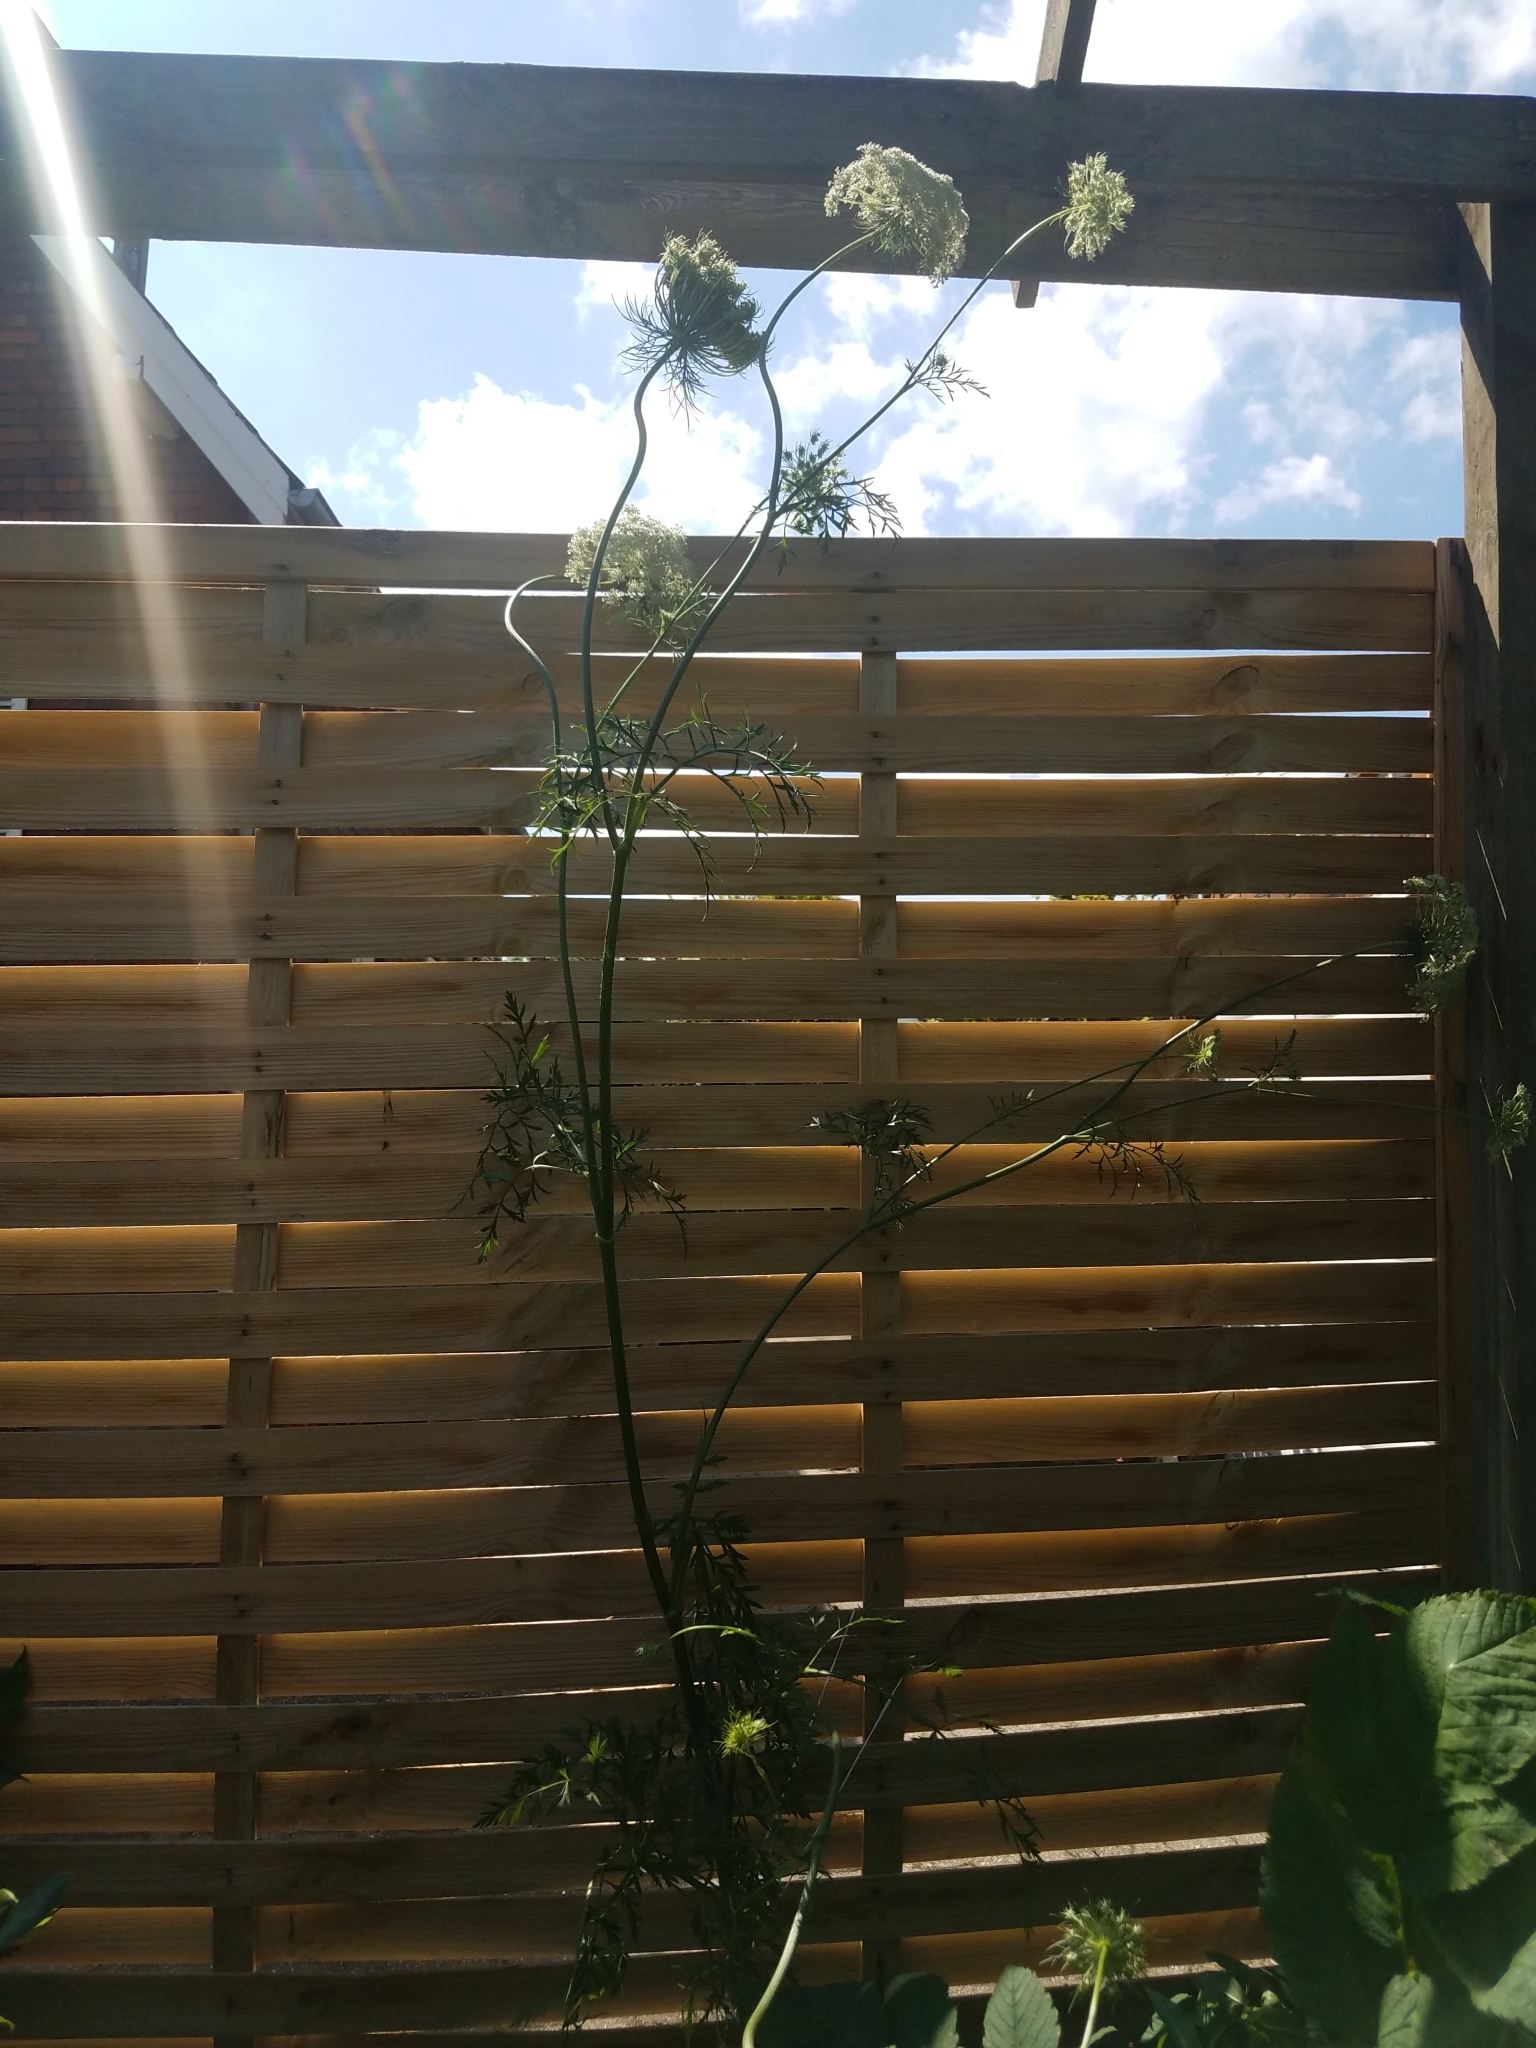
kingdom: Plantae
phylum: Tracheophyta
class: Magnoliopsida
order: Apiales
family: Apiaceae
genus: Daucus
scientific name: Daucus carota
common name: Wild carrot
